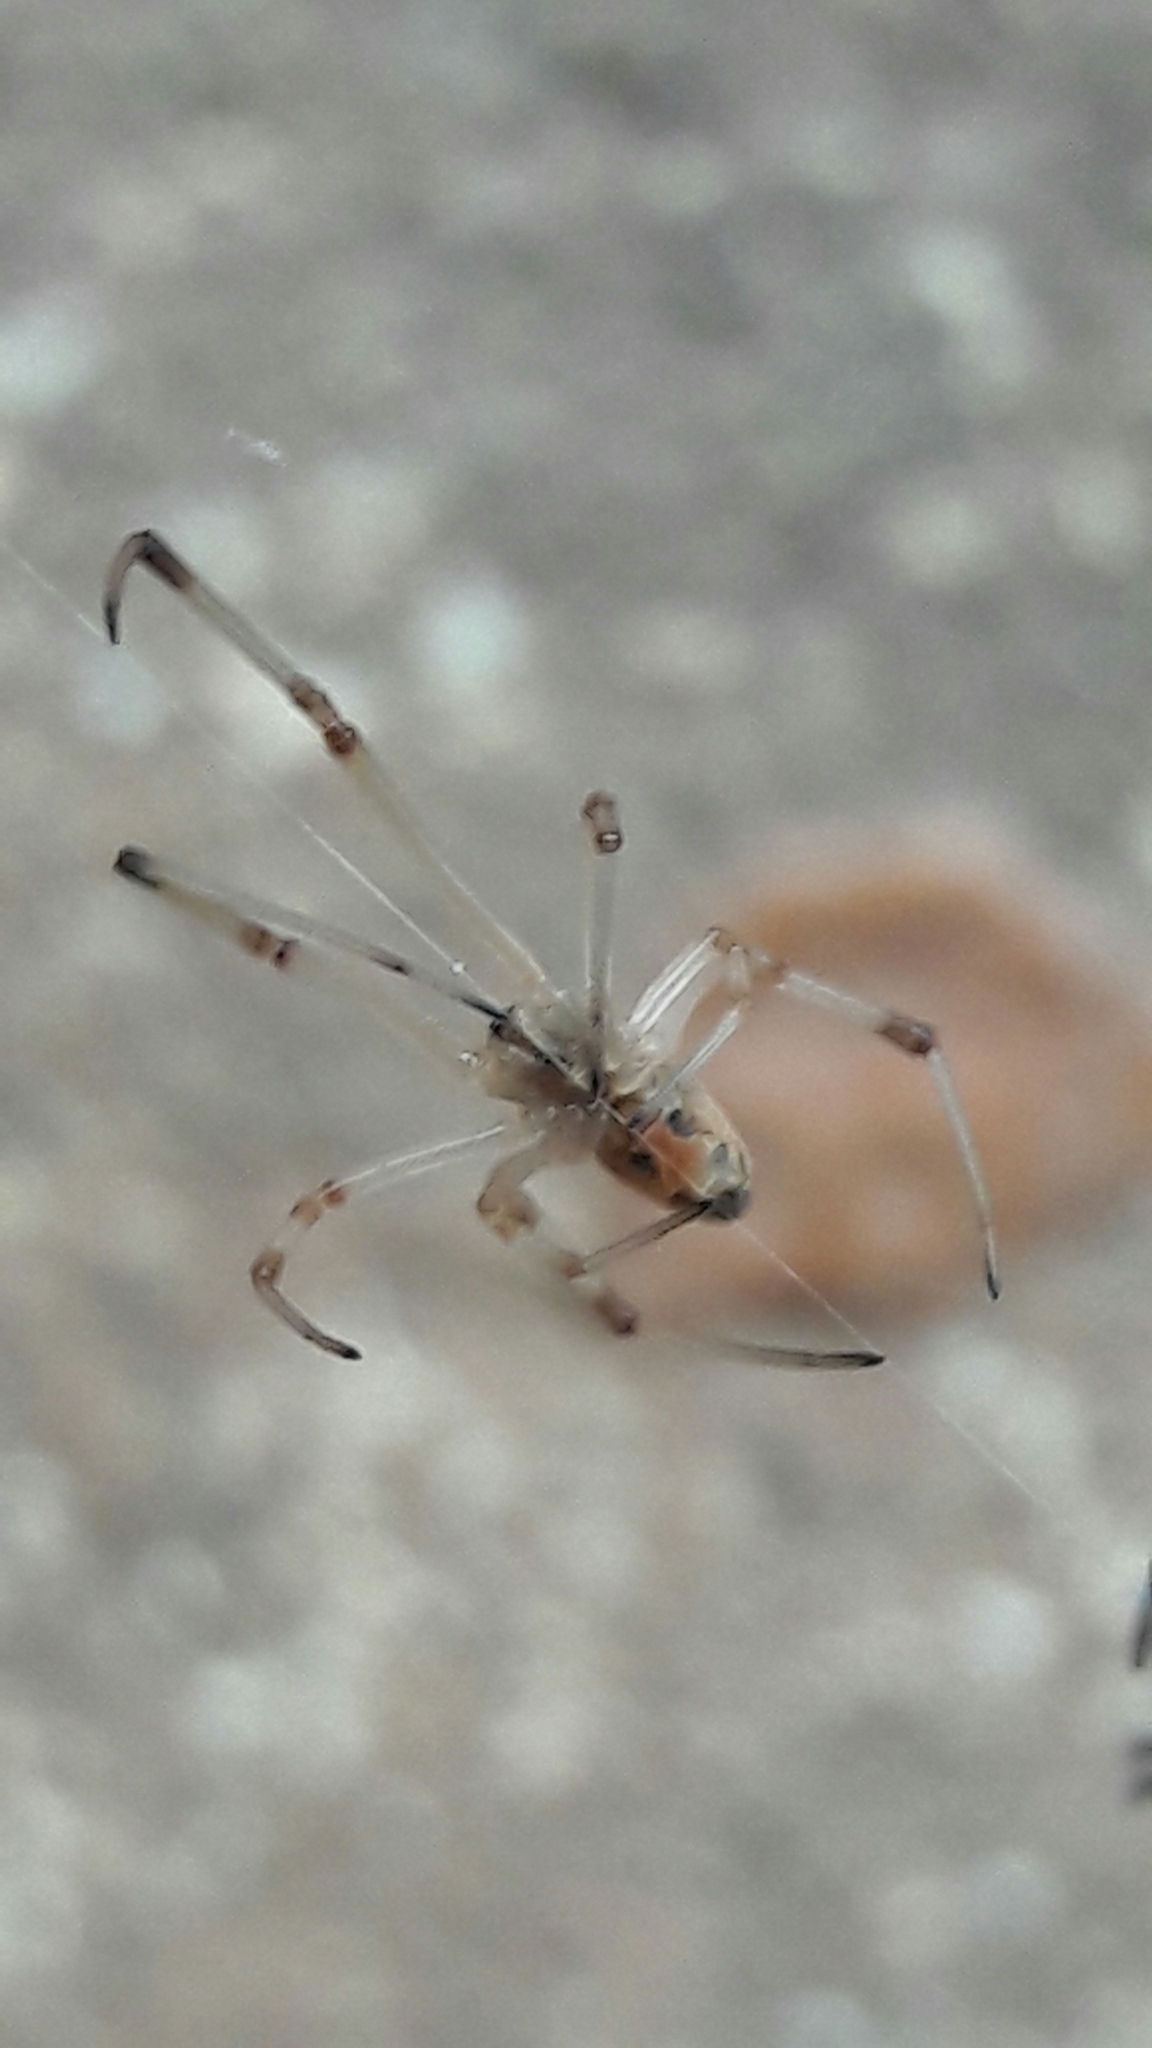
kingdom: Animalia
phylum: Arthropoda
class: Arachnida
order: Araneae
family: Theridiidae
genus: Latrodectus
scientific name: Latrodectus geometricus
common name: Brown widow spider
